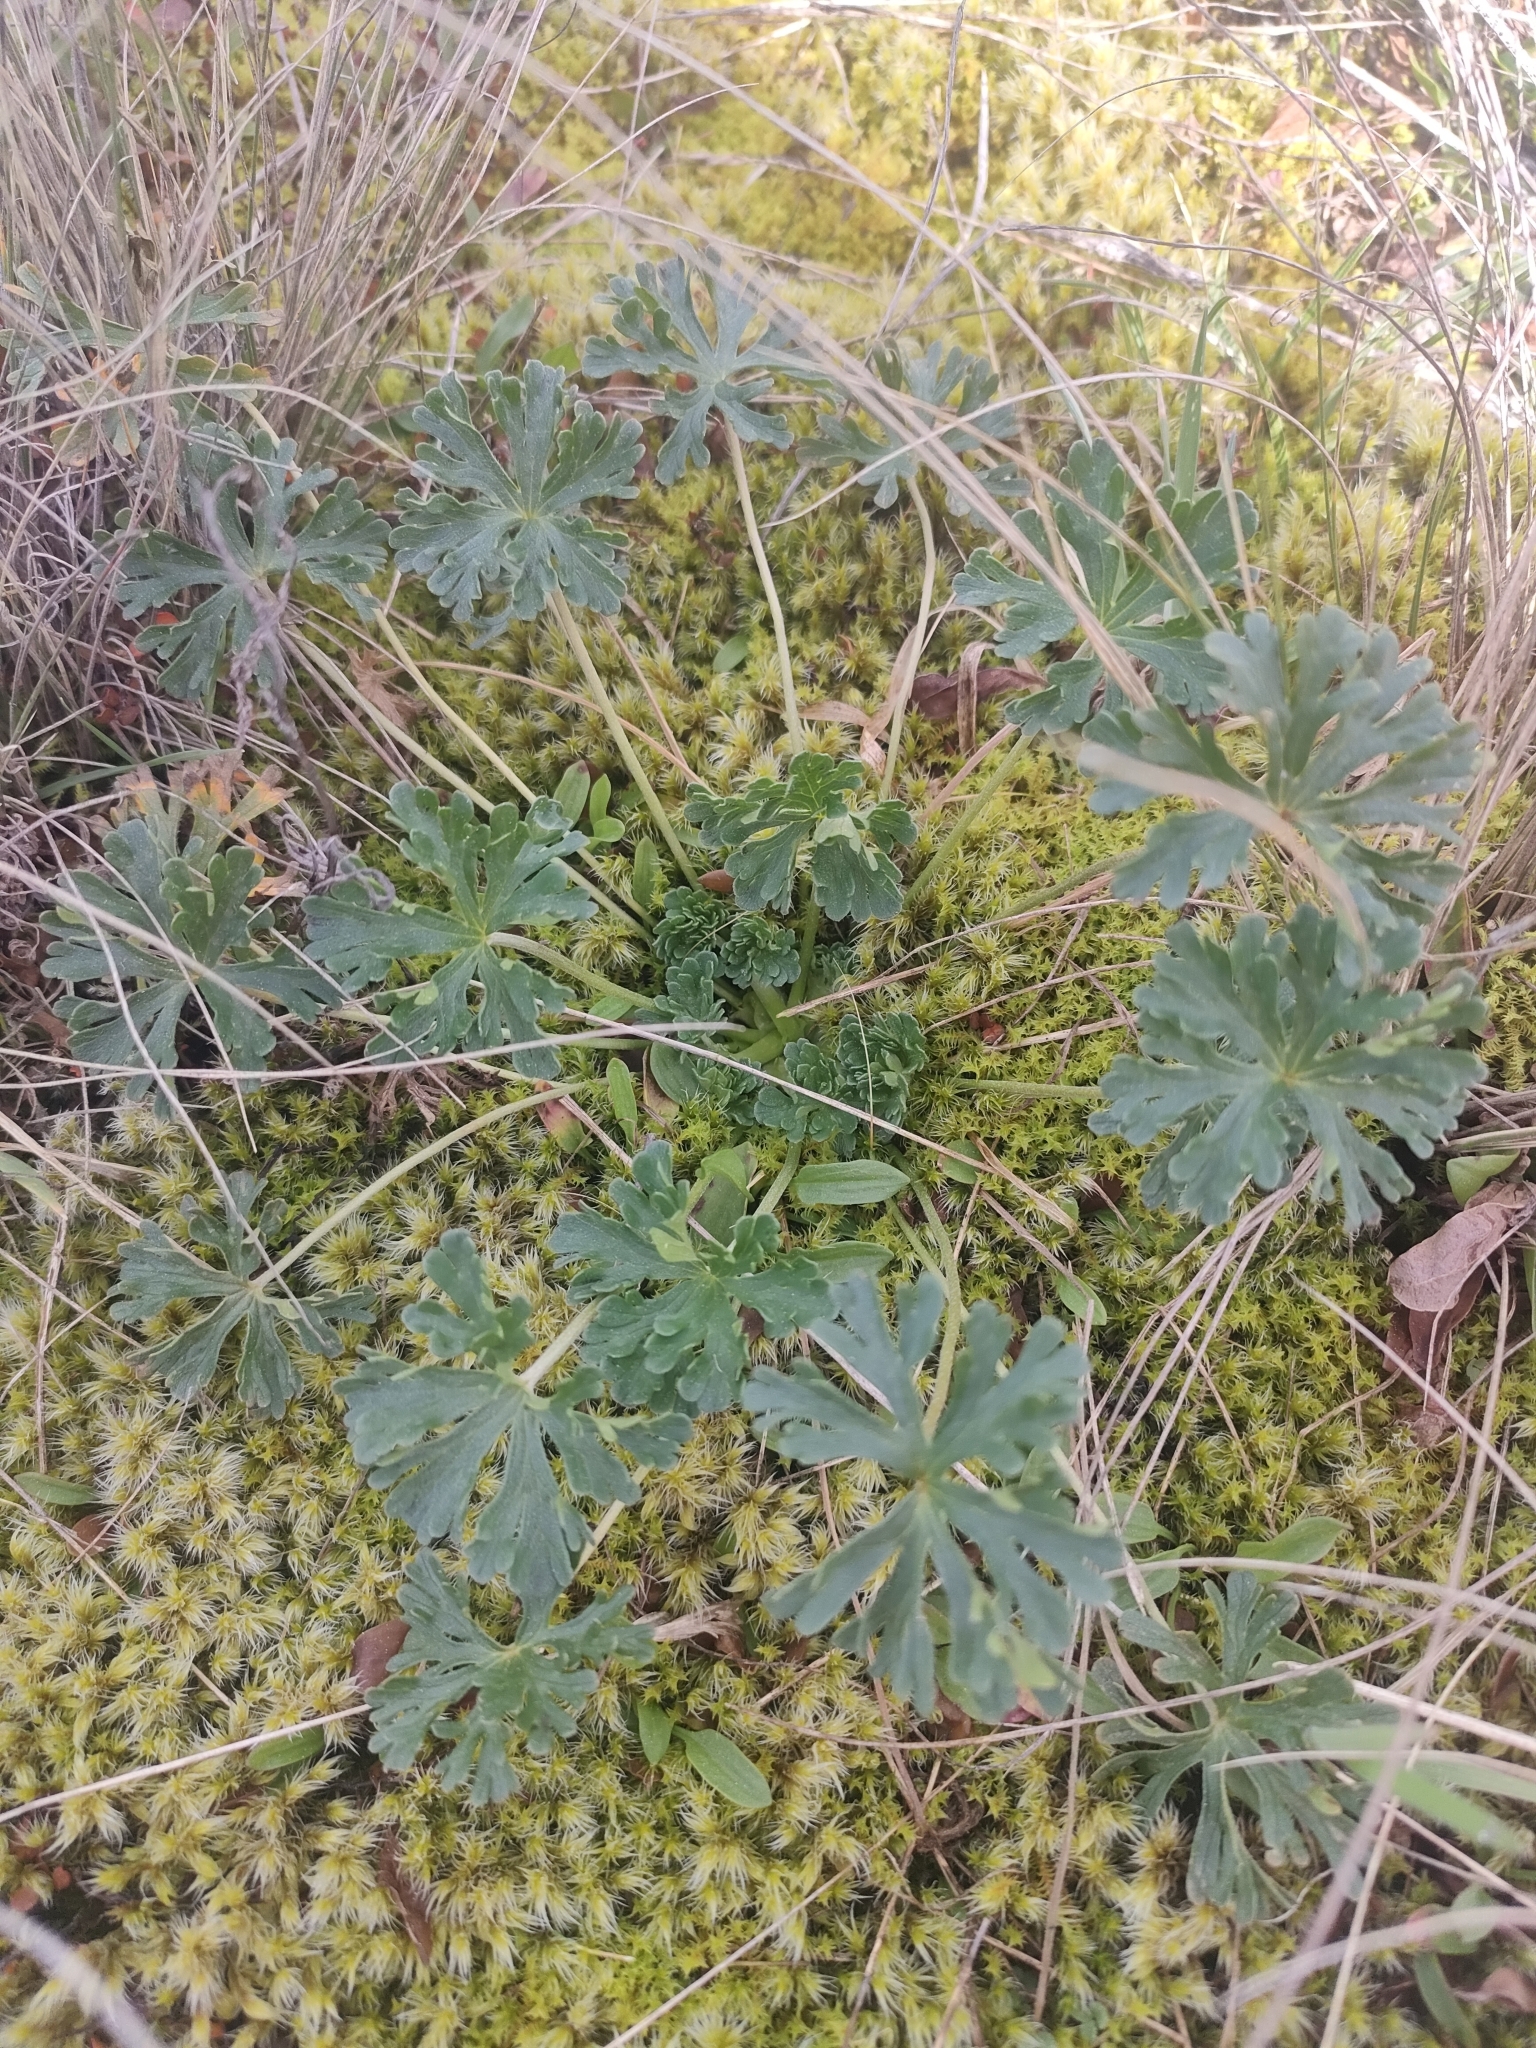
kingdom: Plantae
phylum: Tracheophyta
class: Magnoliopsida
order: Geraniales
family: Geraniaceae
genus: Geranium
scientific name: Geranium retrorsum
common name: New zealand geranium
